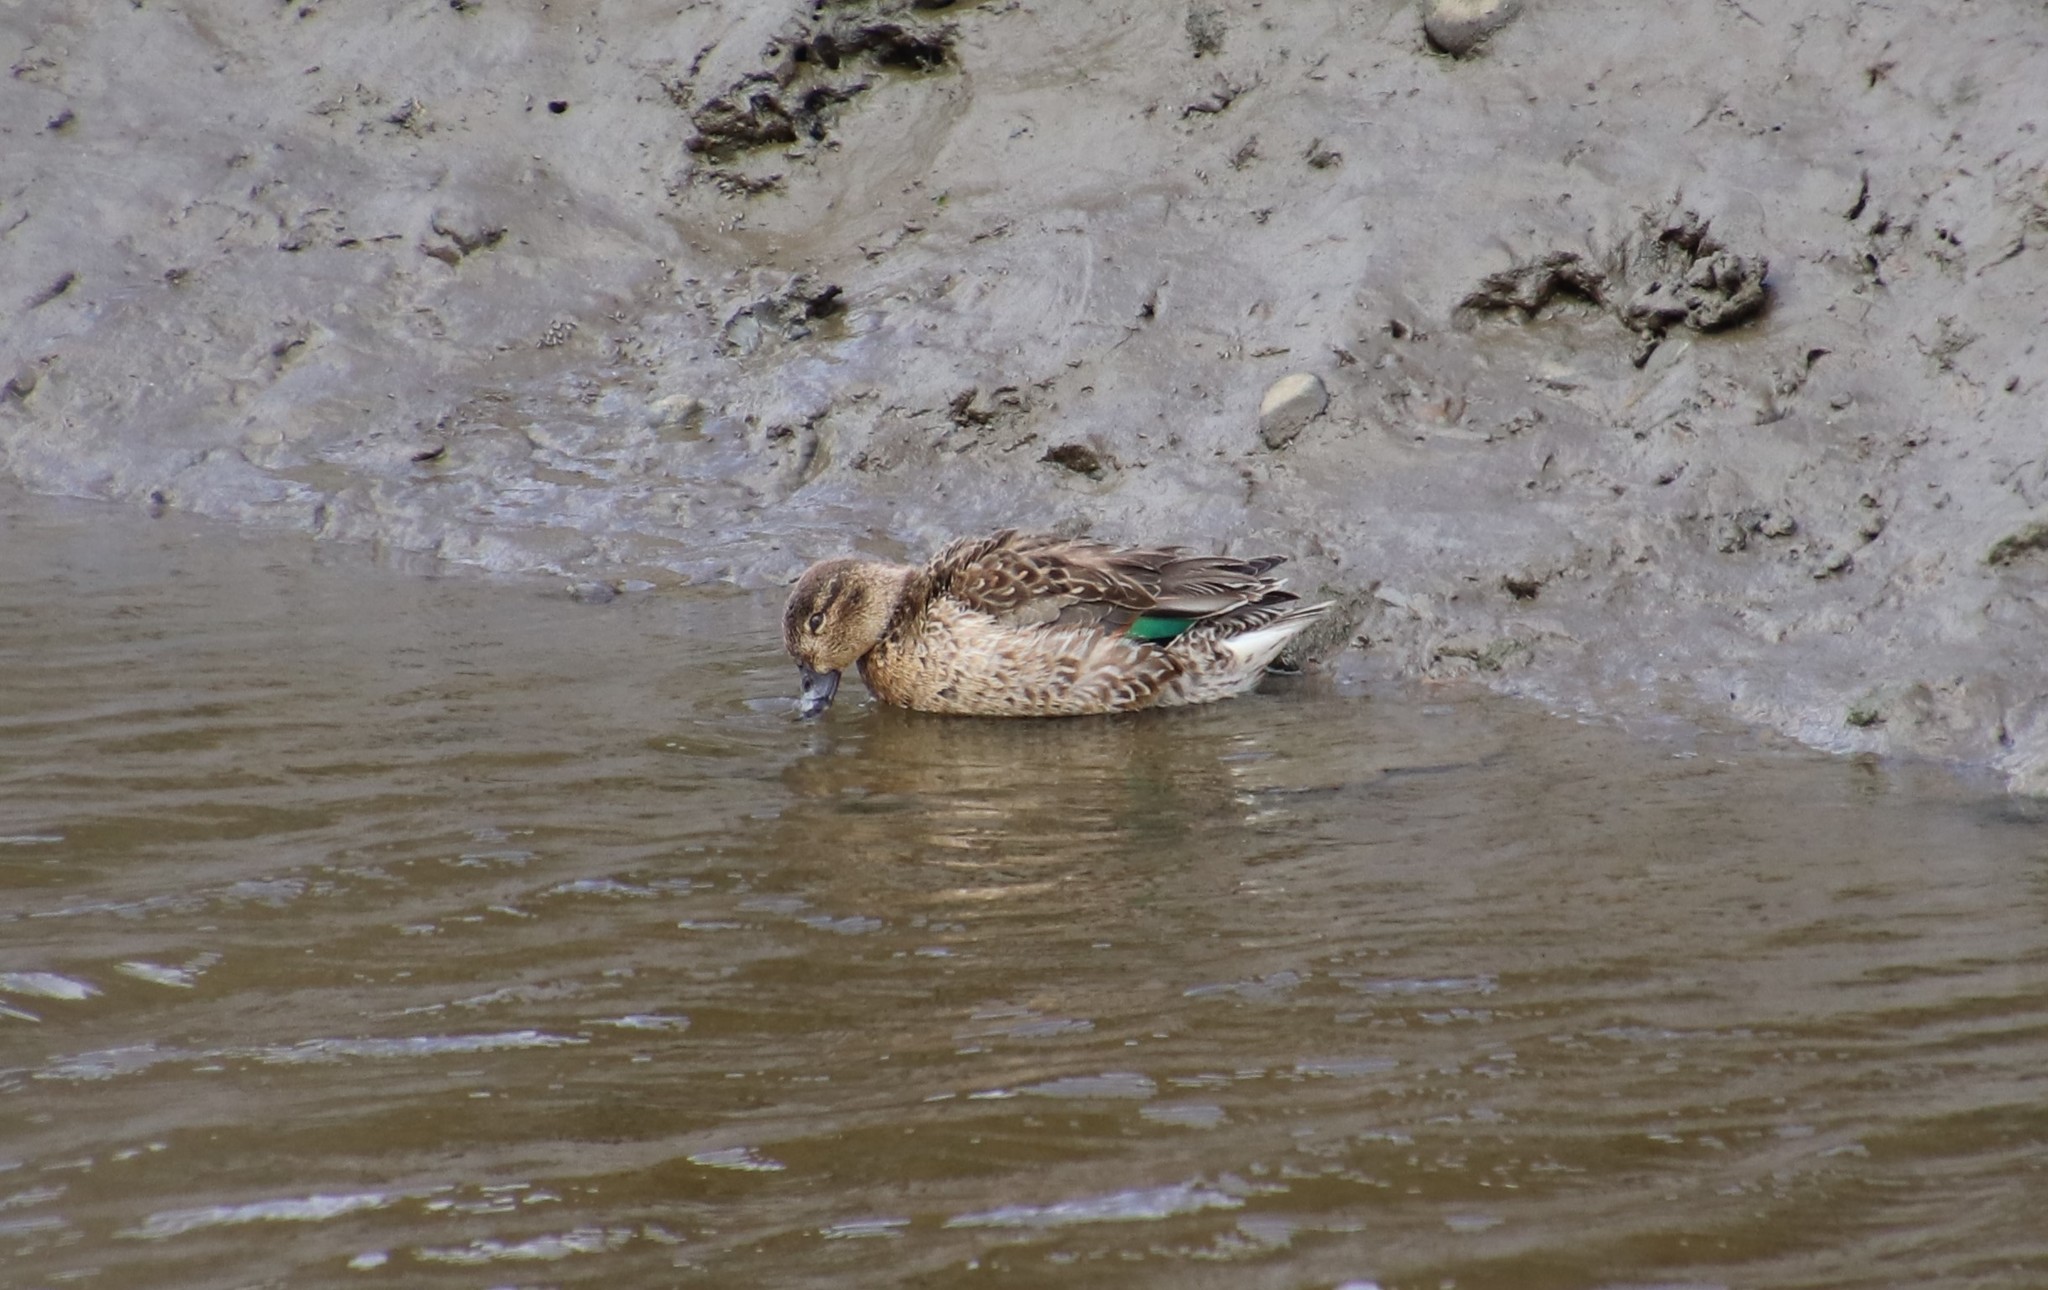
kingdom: Animalia
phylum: Chordata
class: Aves
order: Anseriformes
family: Anatidae
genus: Anas
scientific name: Anas crecca
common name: Eurasian teal
